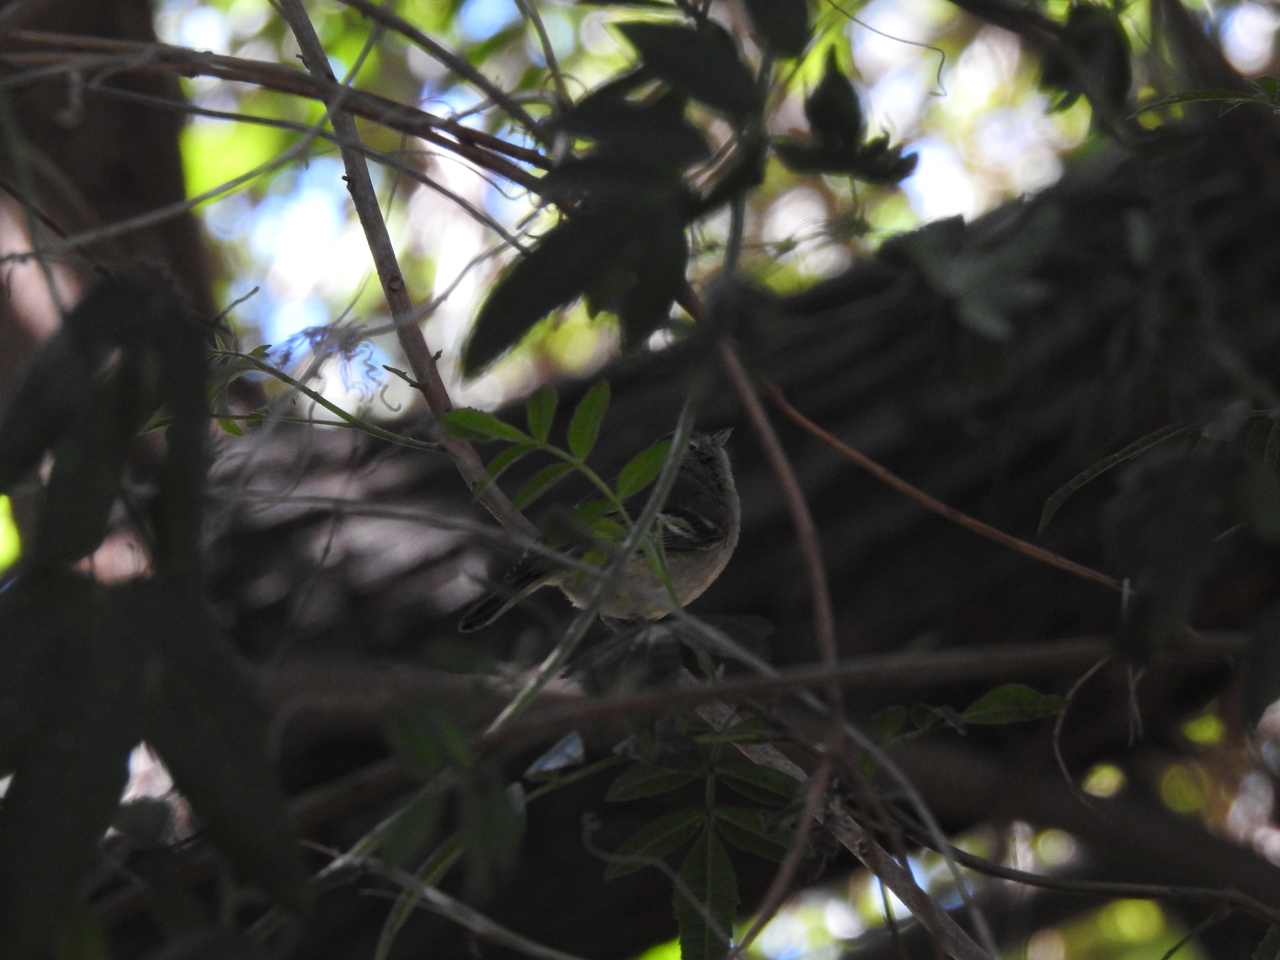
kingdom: Animalia
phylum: Chordata
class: Aves
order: Passeriformes
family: Vireonidae
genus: Vireo
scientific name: Vireo huttoni
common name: Hutton's vireo
